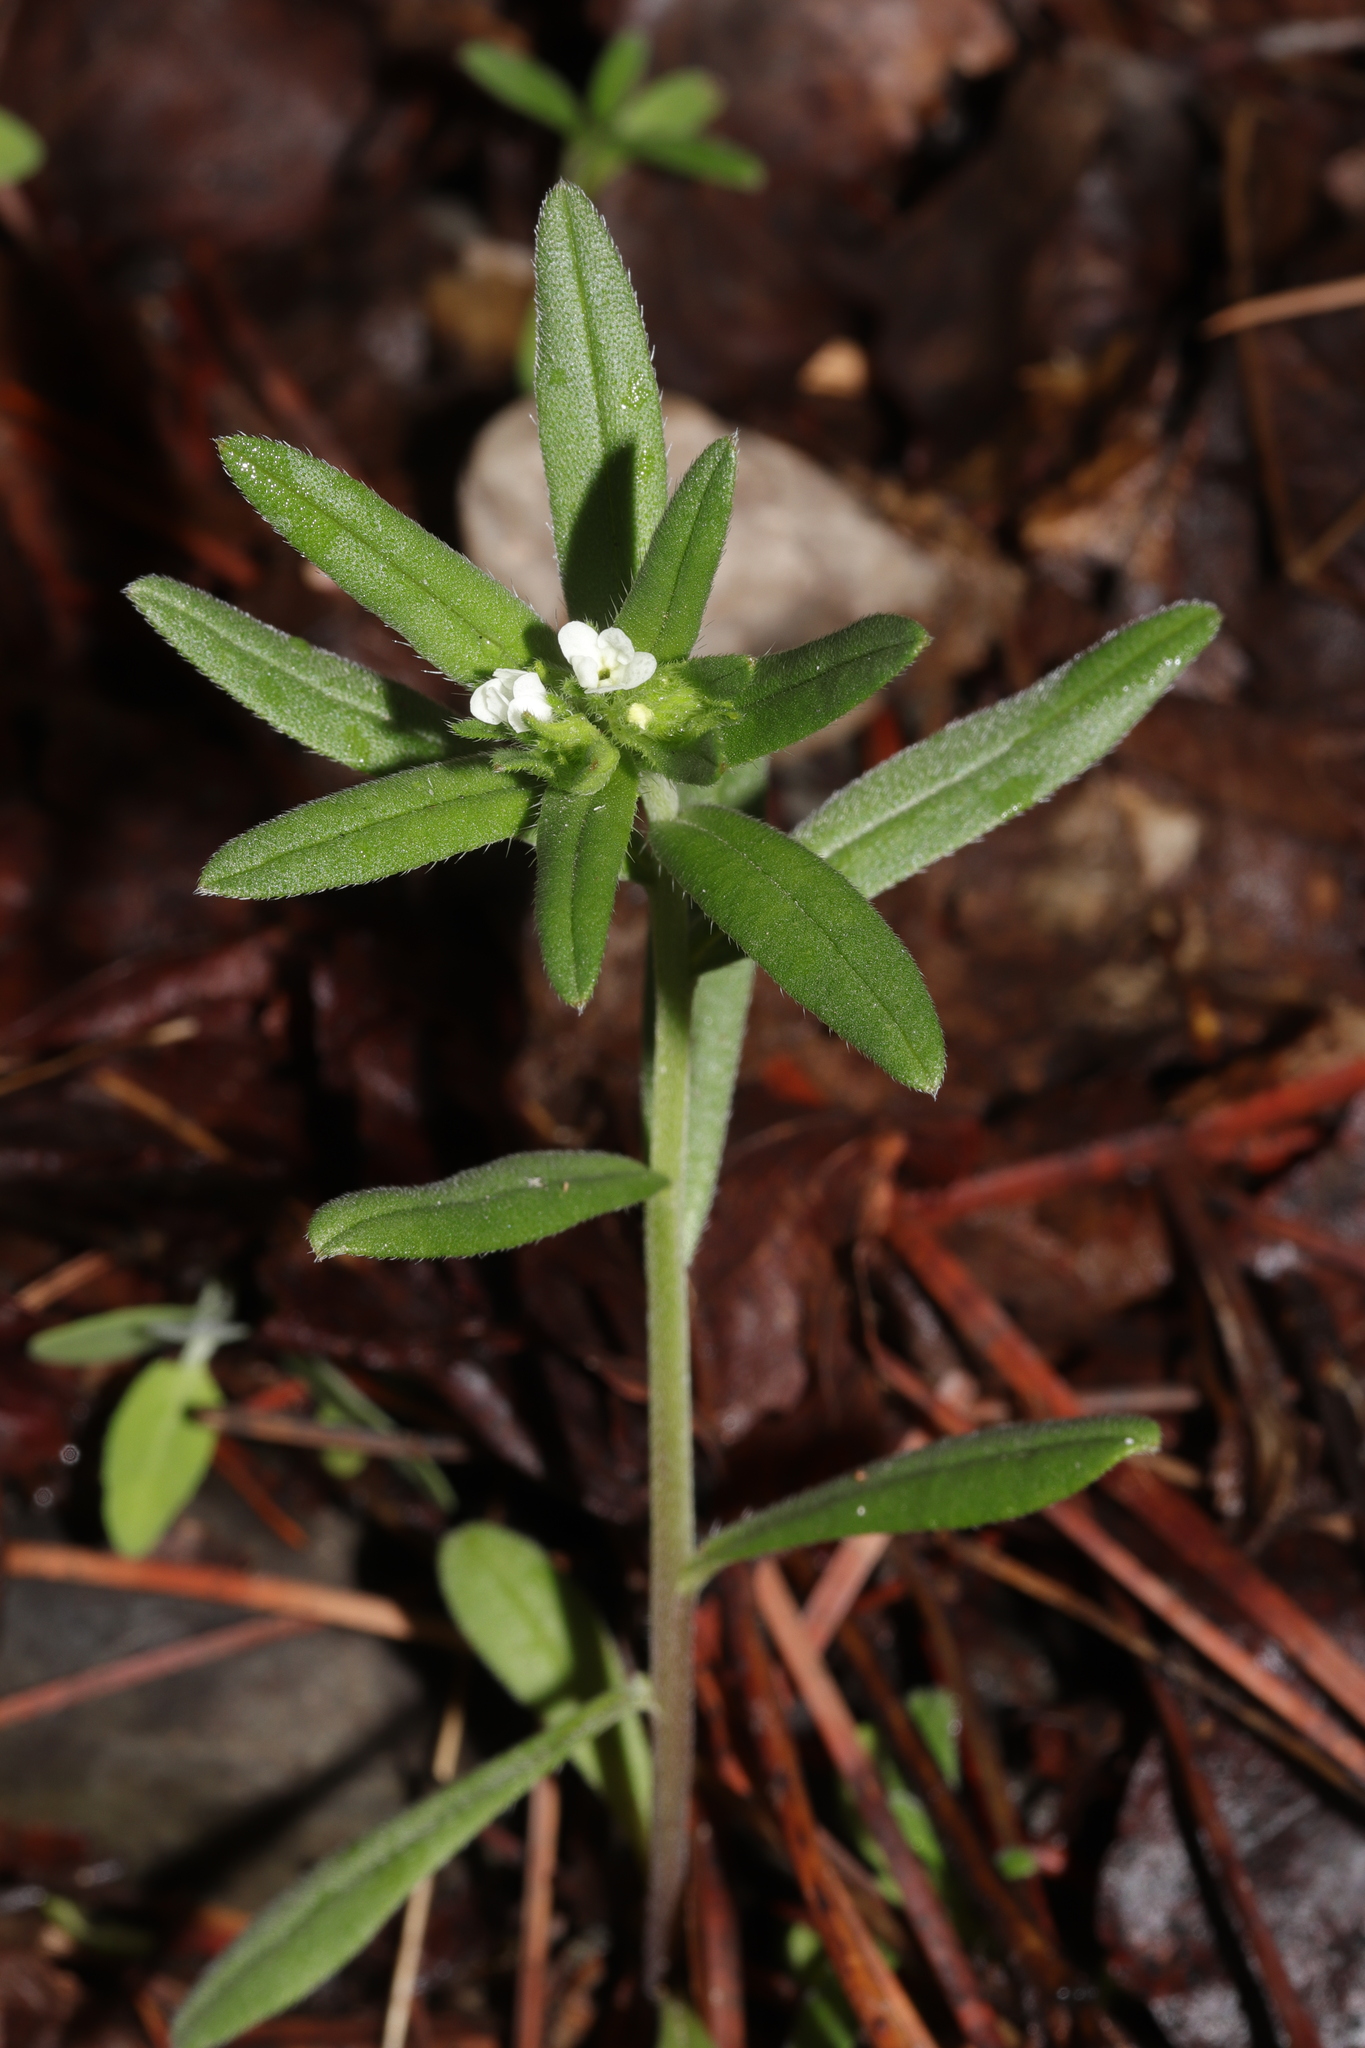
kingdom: Plantae
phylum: Tracheophyta
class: Magnoliopsida
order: Boraginales
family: Boraginaceae
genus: Buglossoides
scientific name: Buglossoides arvensis
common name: Corn gromwell
